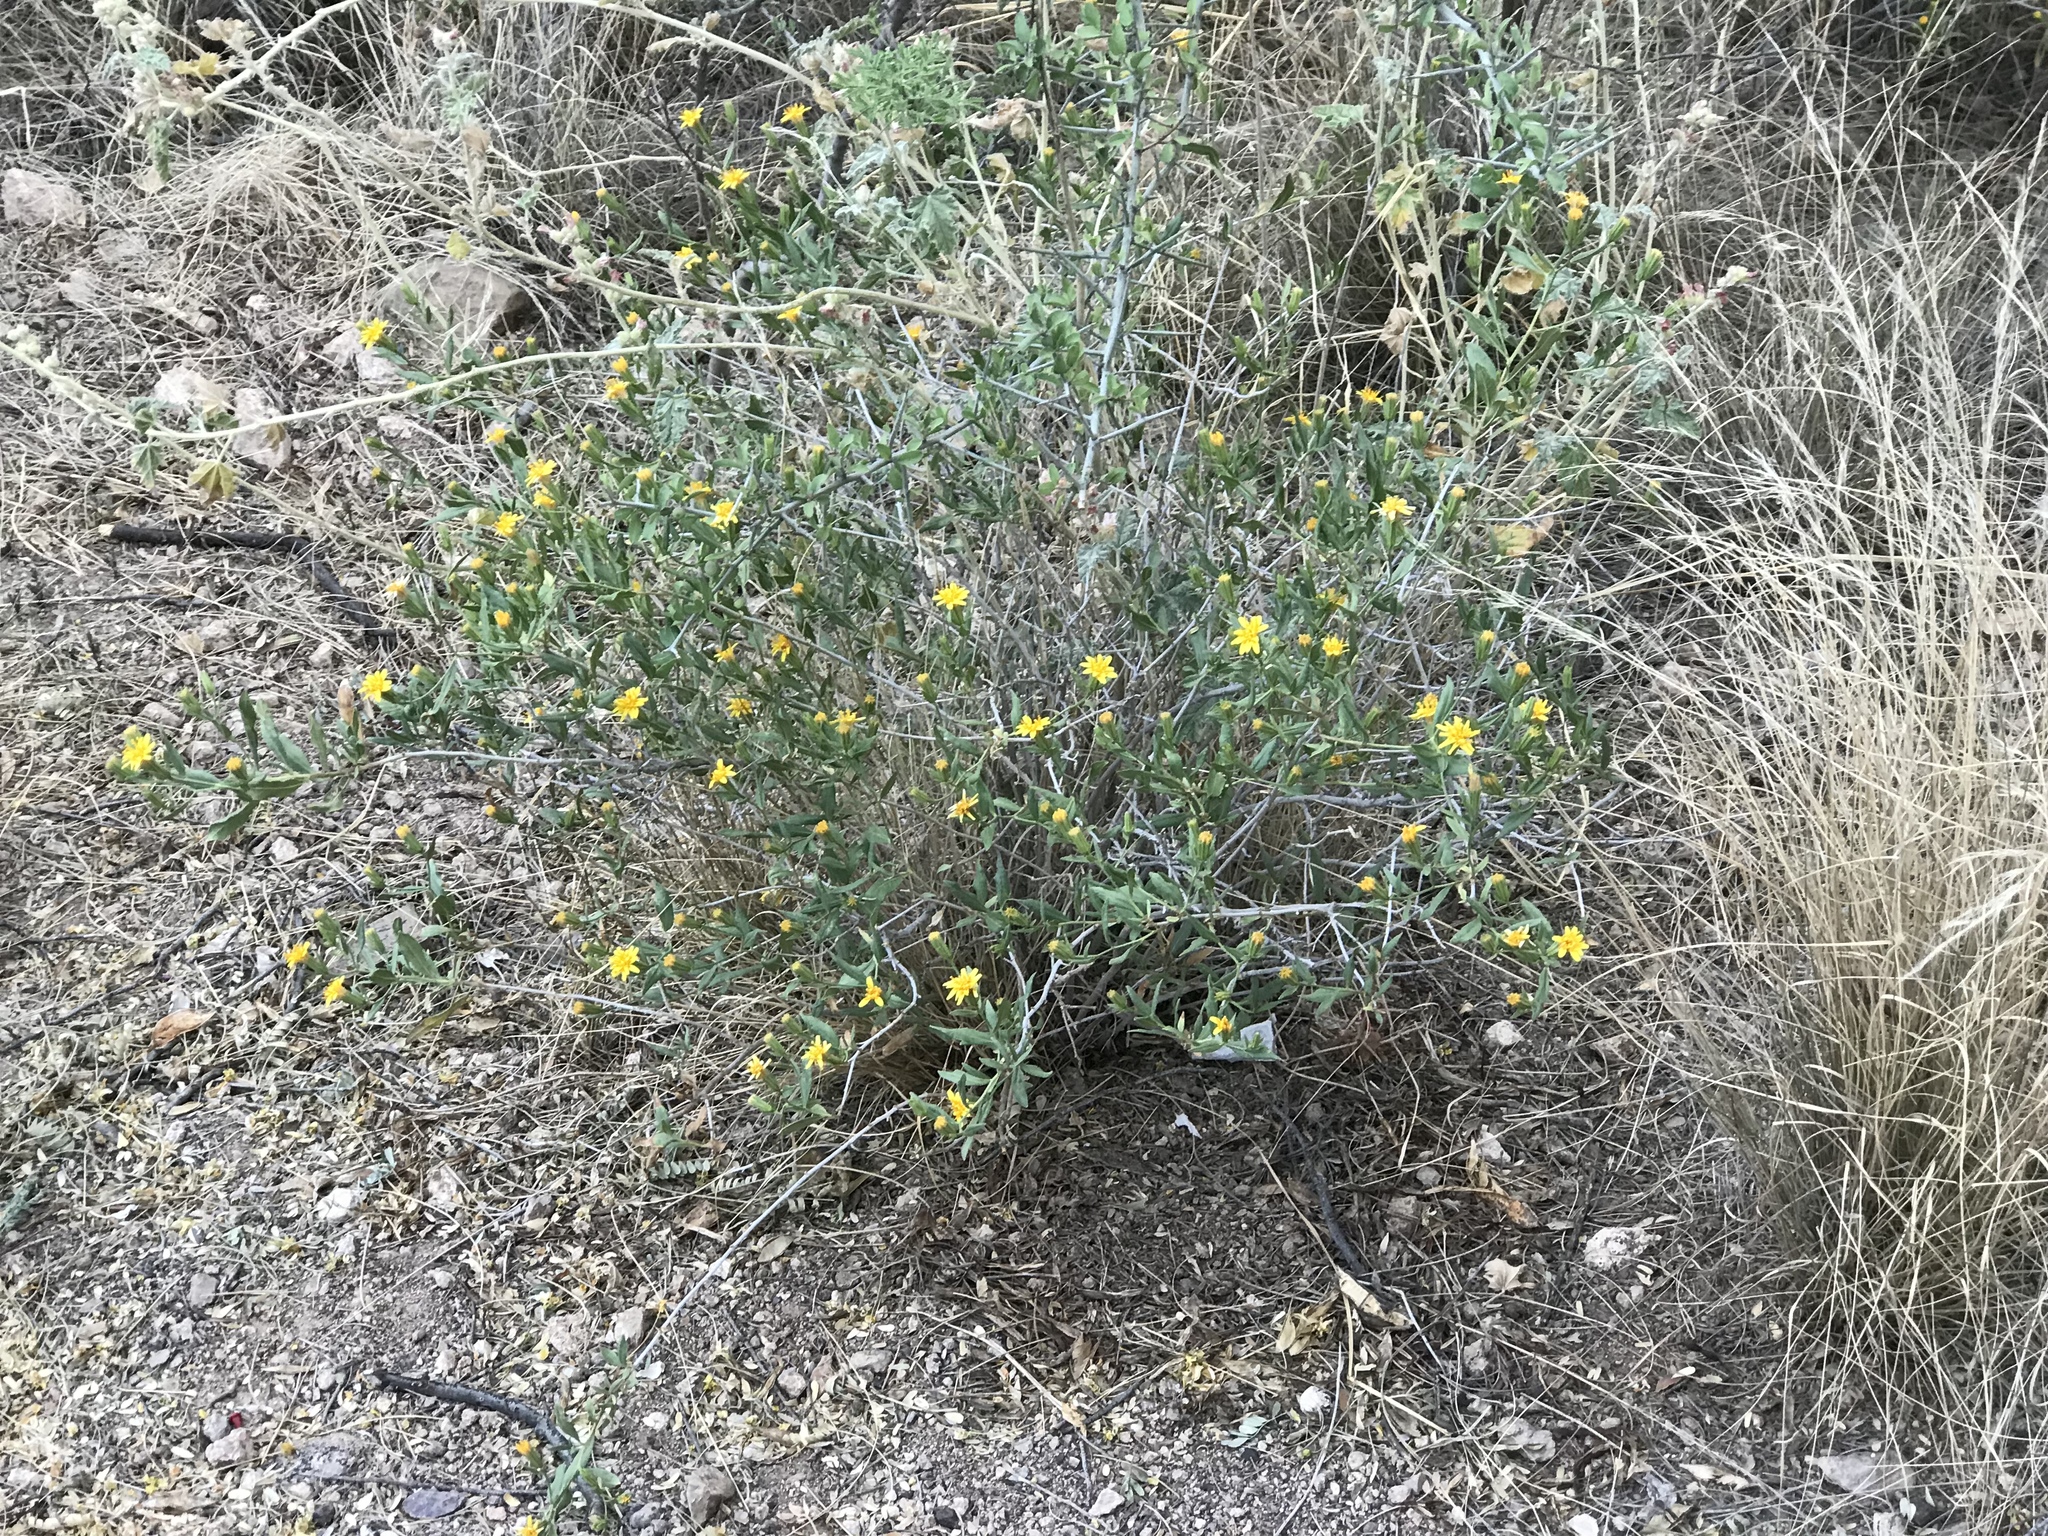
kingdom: Plantae
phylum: Tracheophyta
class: Magnoliopsida
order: Asterales
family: Asteraceae
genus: Trixis
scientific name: Trixis californica
